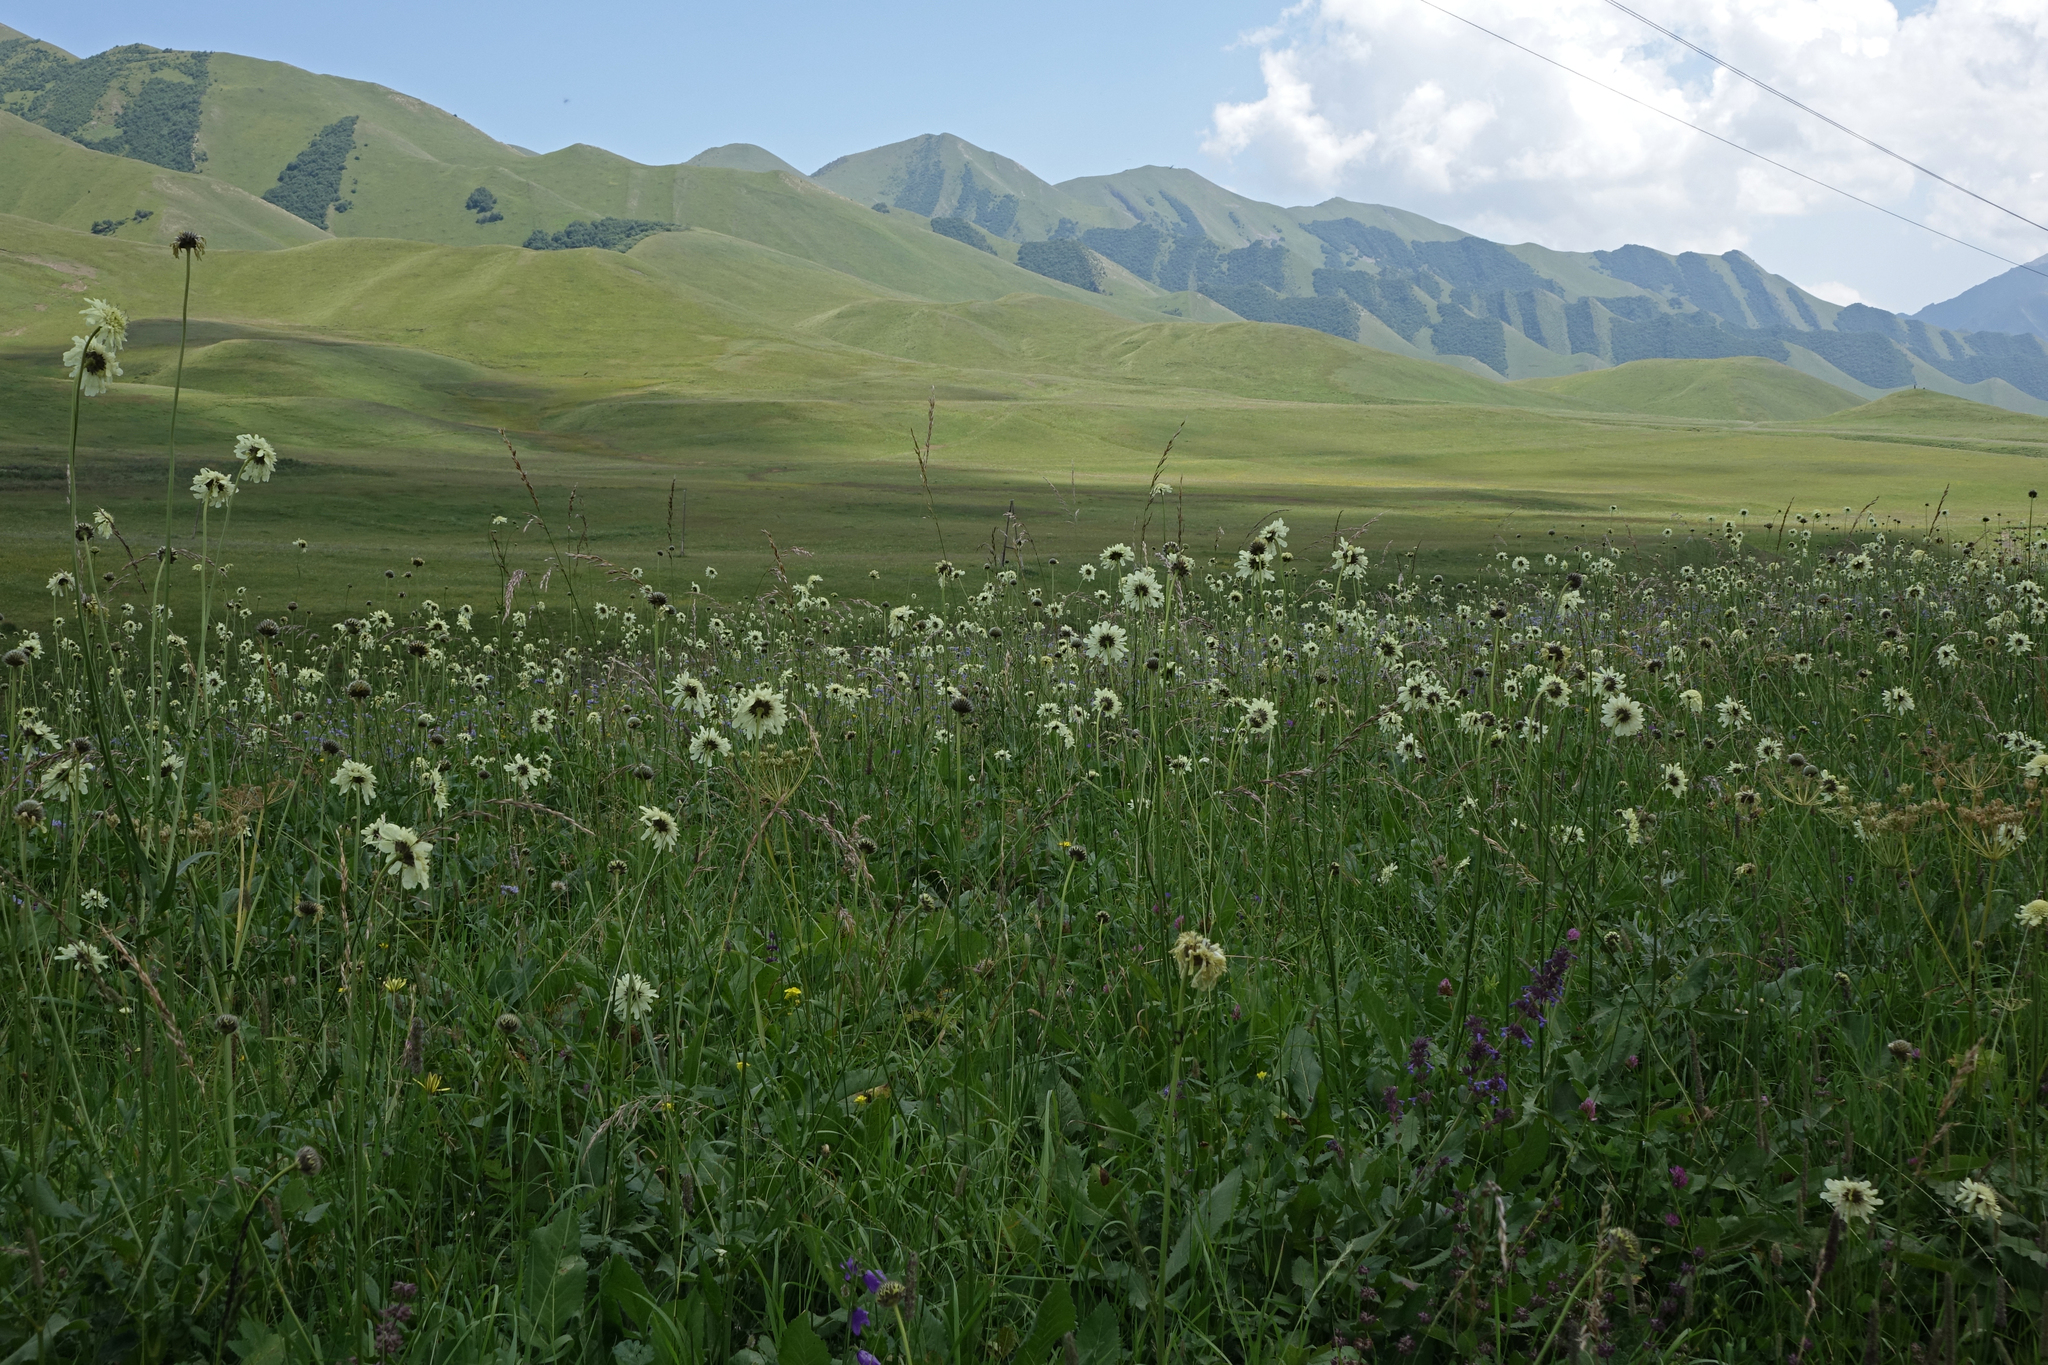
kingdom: Plantae
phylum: Tracheophyta
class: Magnoliopsida
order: Dipsacales
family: Caprifoliaceae
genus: Lomelosia
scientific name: Lomelosia caucasica
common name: Pincushion-flower
